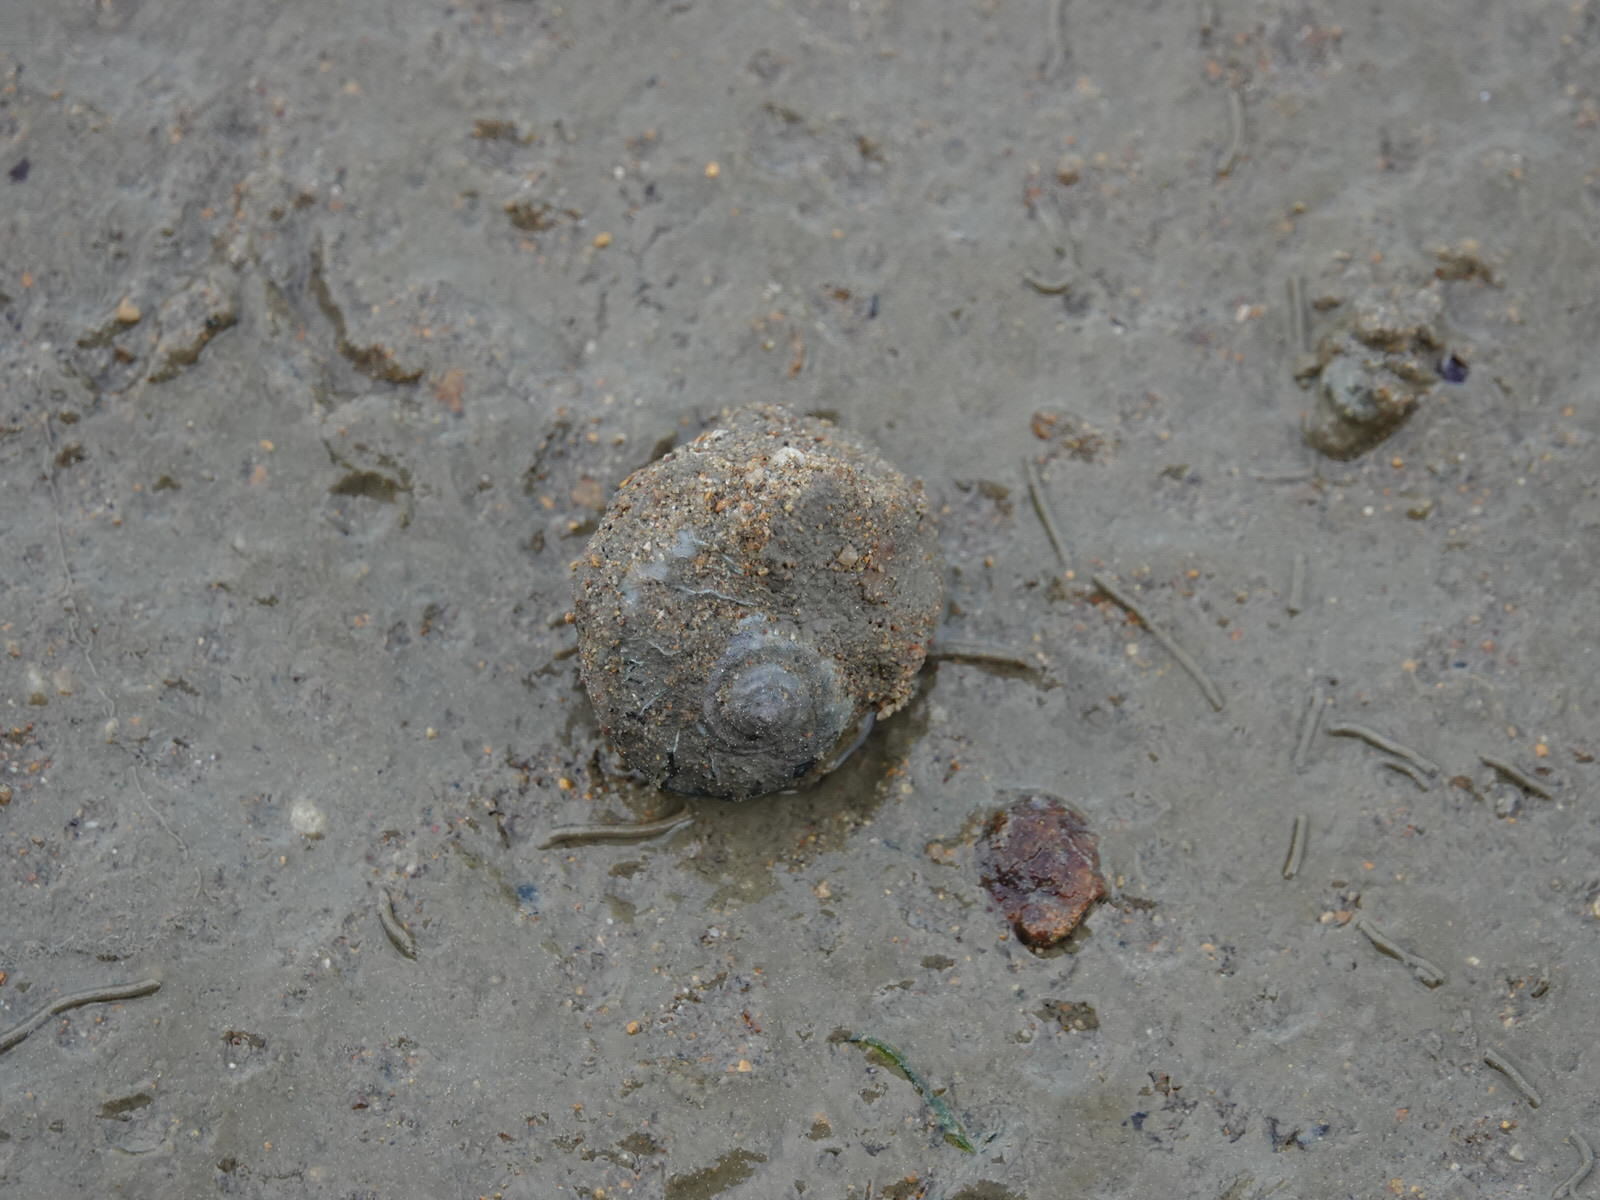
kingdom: Animalia
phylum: Mollusca
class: Gastropoda
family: Amphibolidae
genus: Amphibola
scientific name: Amphibola crenata
